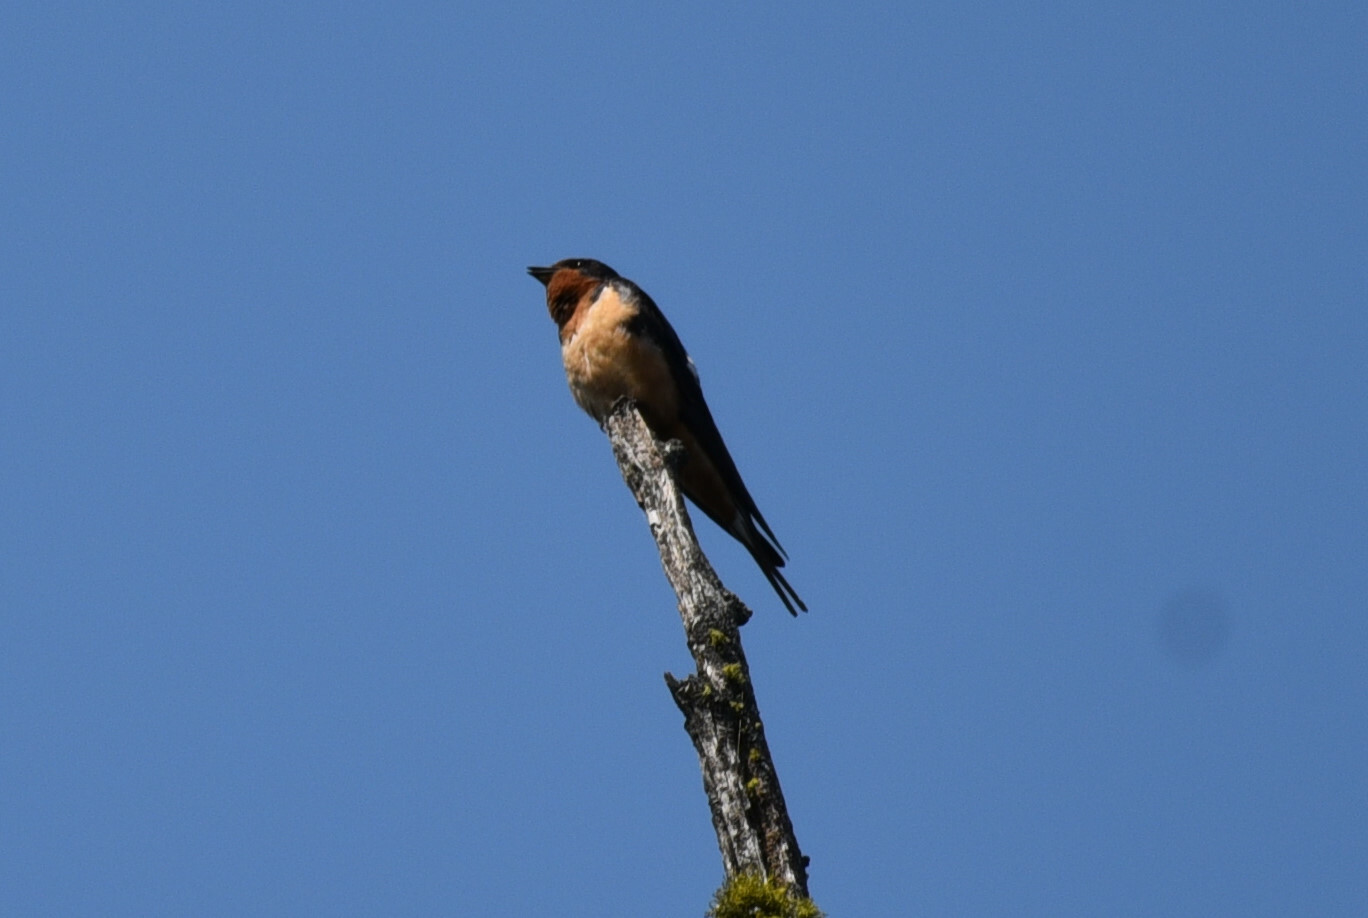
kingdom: Animalia
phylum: Chordata
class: Aves
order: Passeriformes
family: Hirundinidae
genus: Hirundo
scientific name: Hirundo rustica
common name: Barn swallow
